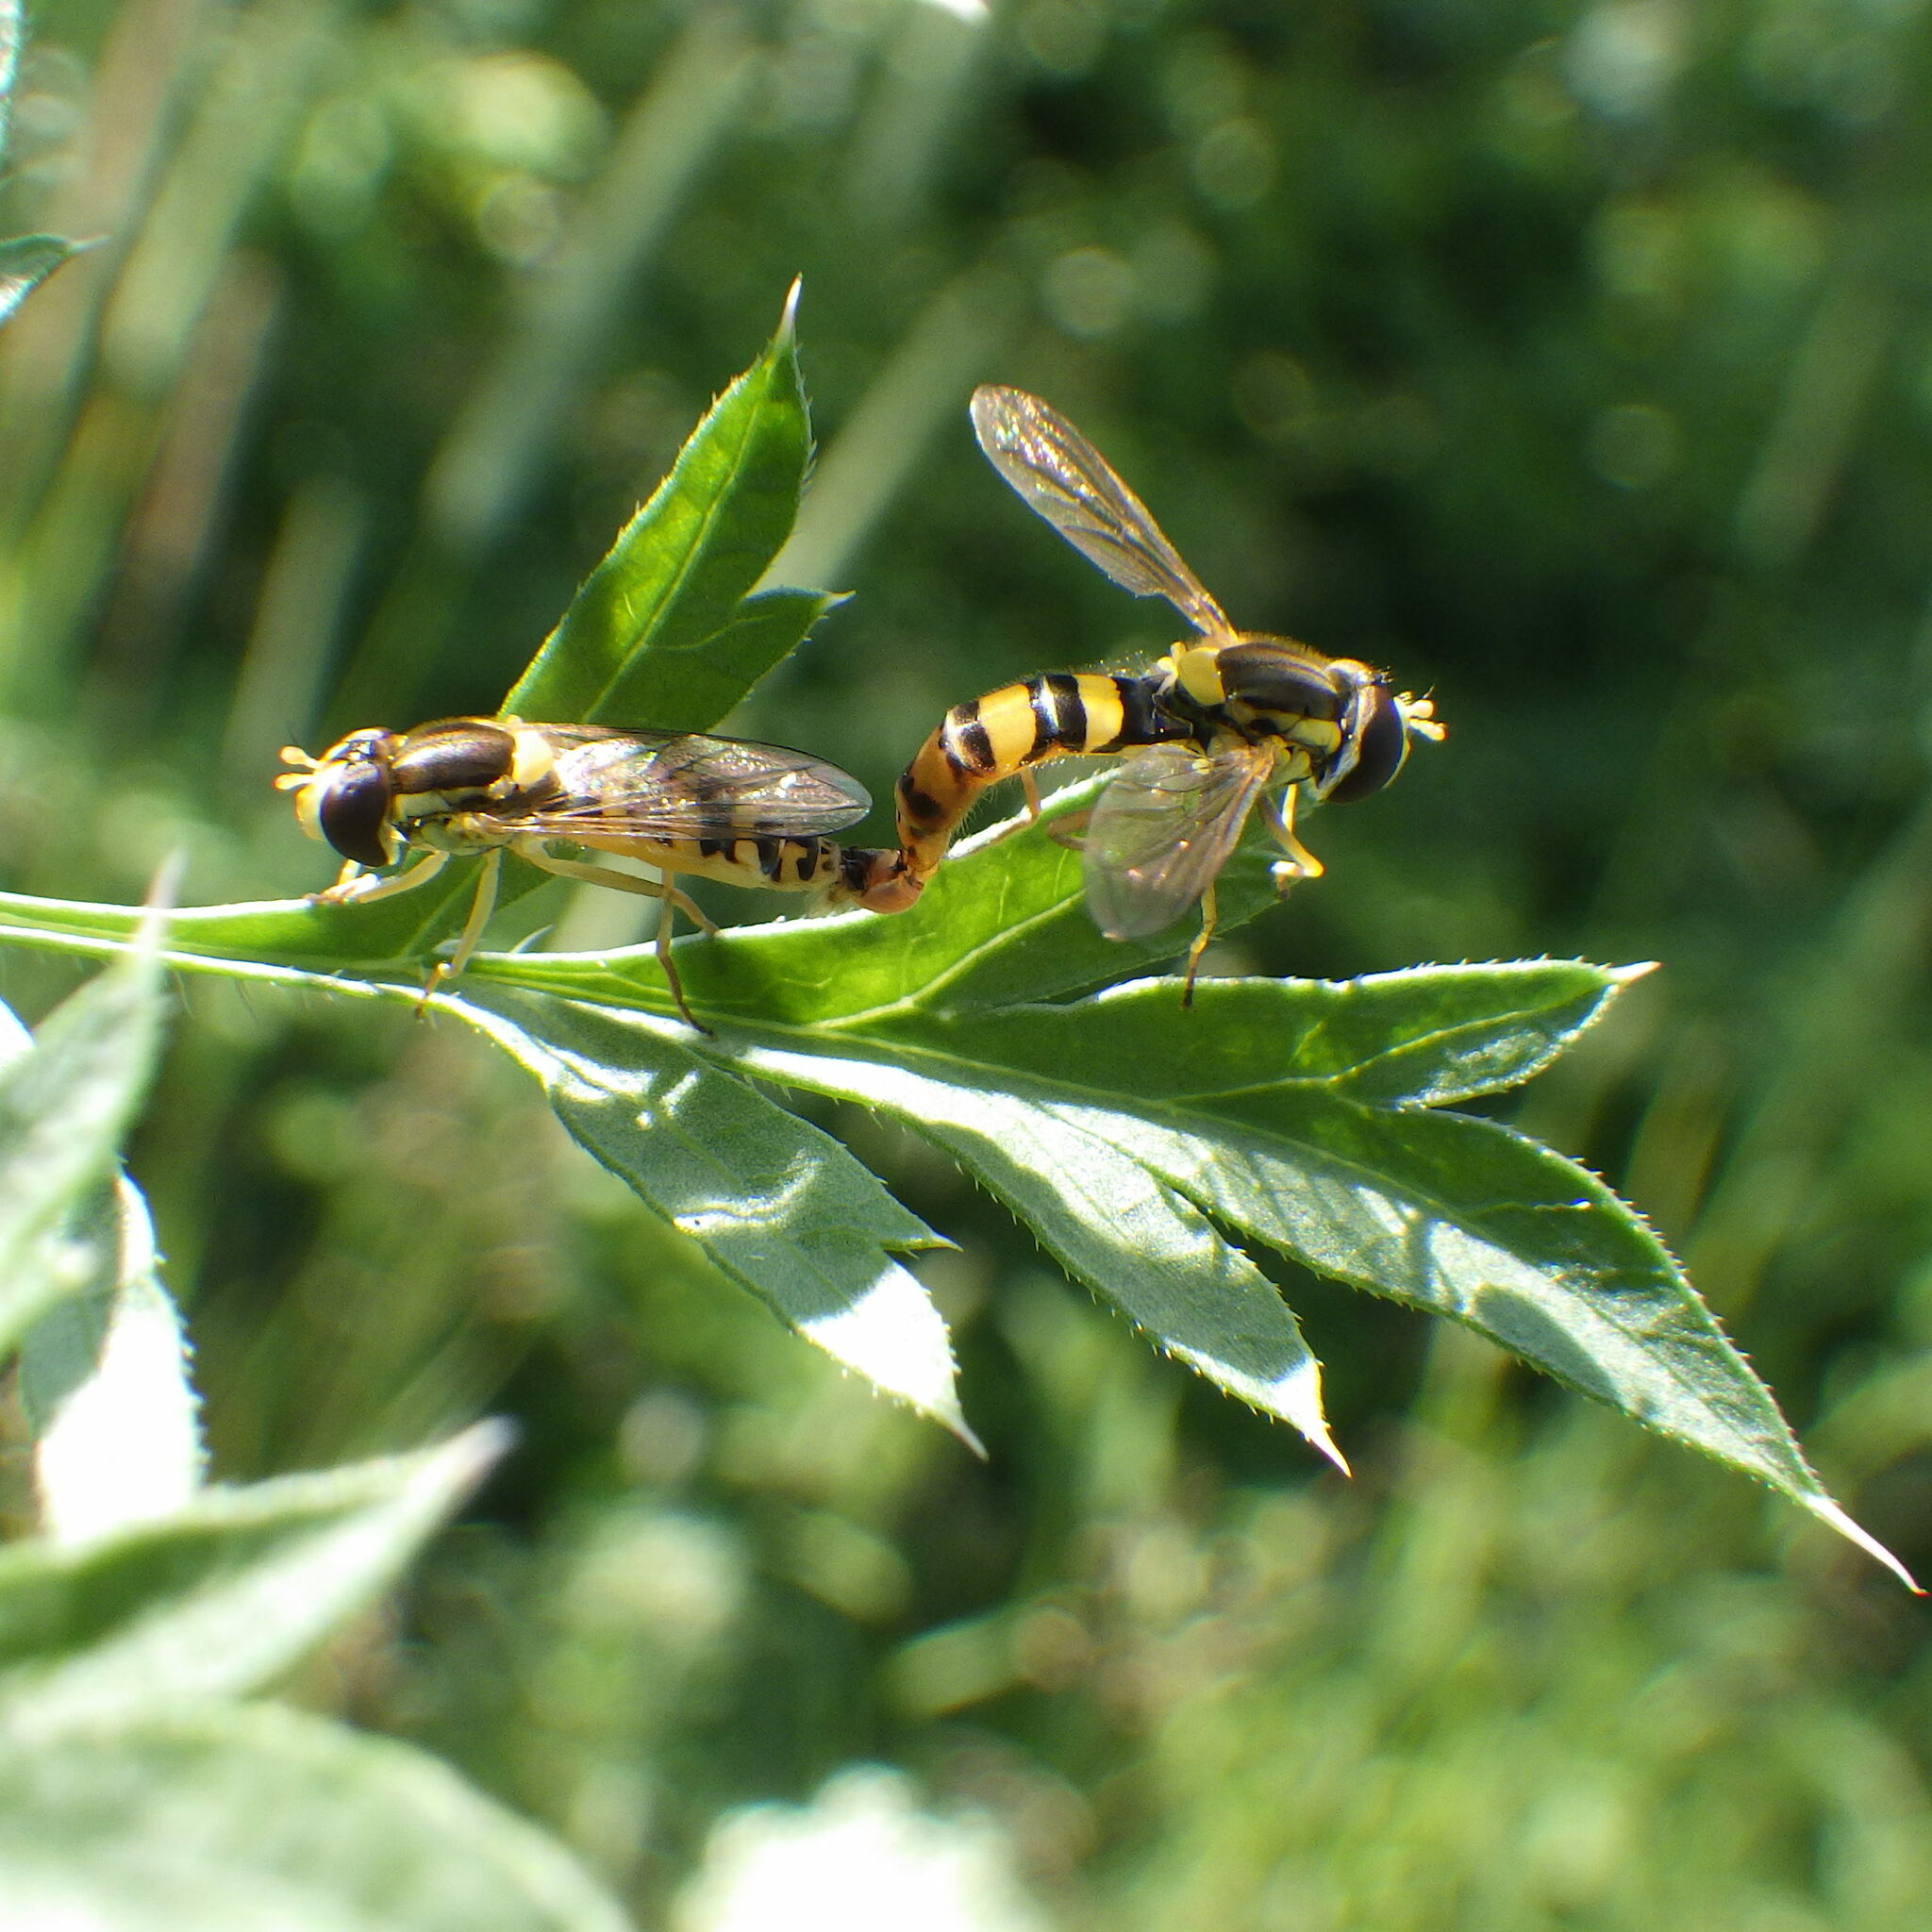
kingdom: Animalia
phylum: Arthropoda
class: Insecta
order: Diptera
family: Syrphidae
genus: Sphaerophoria
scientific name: Sphaerophoria philantha
